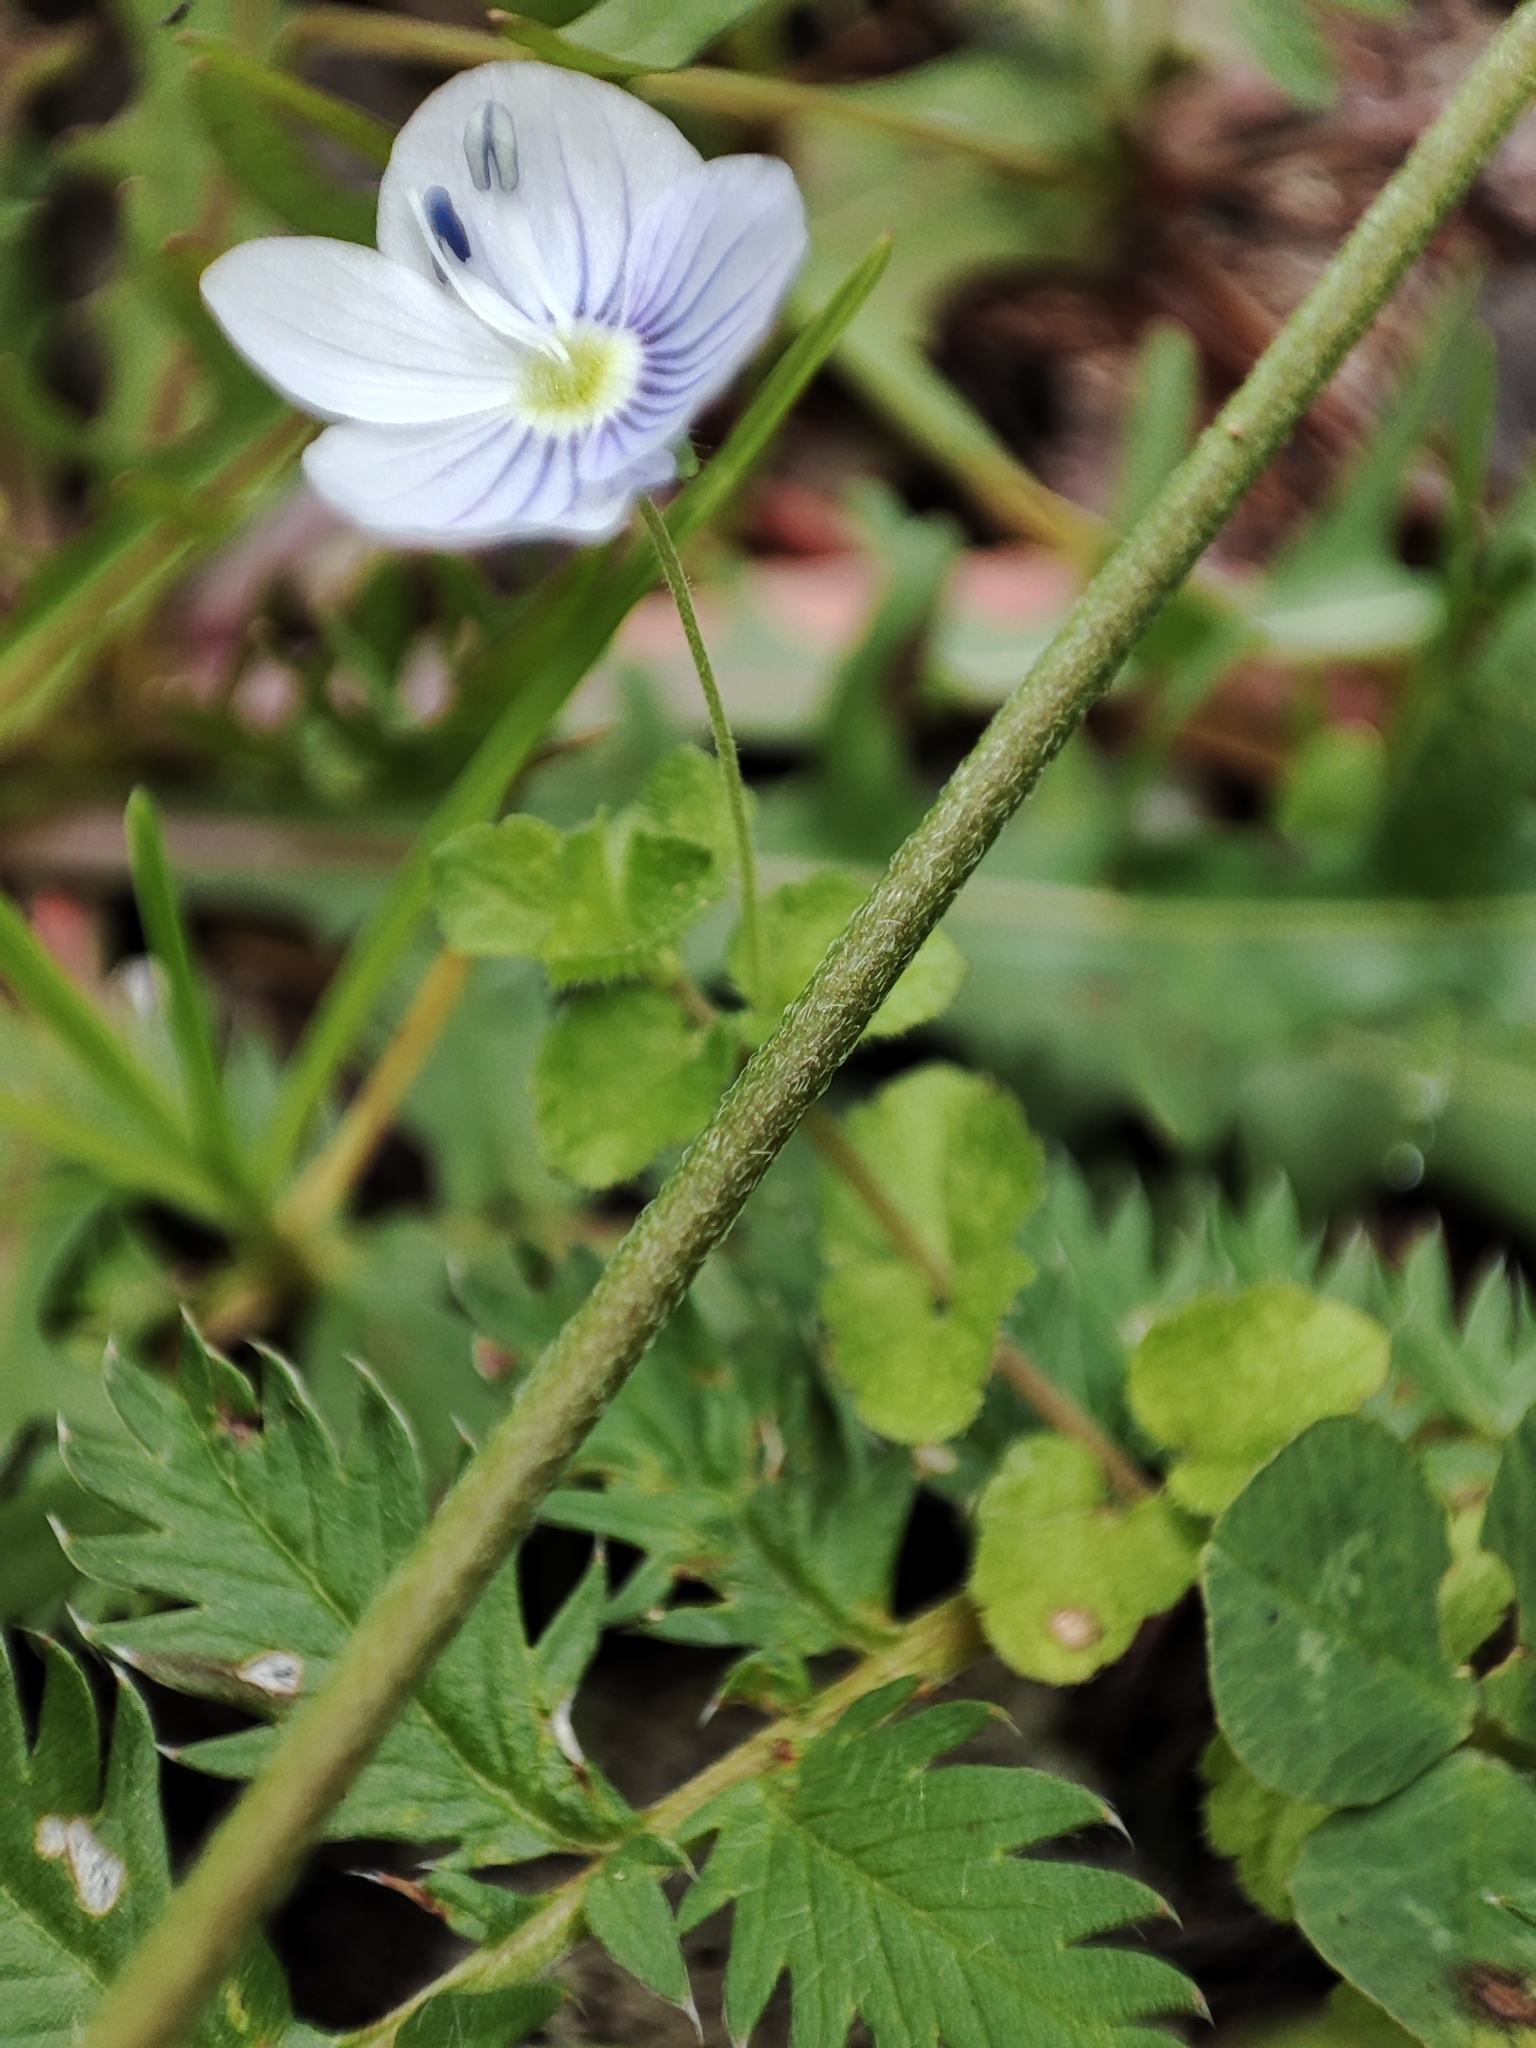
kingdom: Plantae
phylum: Tracheophyta
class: Magnoliopsida
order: Lamiales
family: Plantaginaceae
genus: Veronica
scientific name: Veronica filiformis
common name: Slender speedwell
